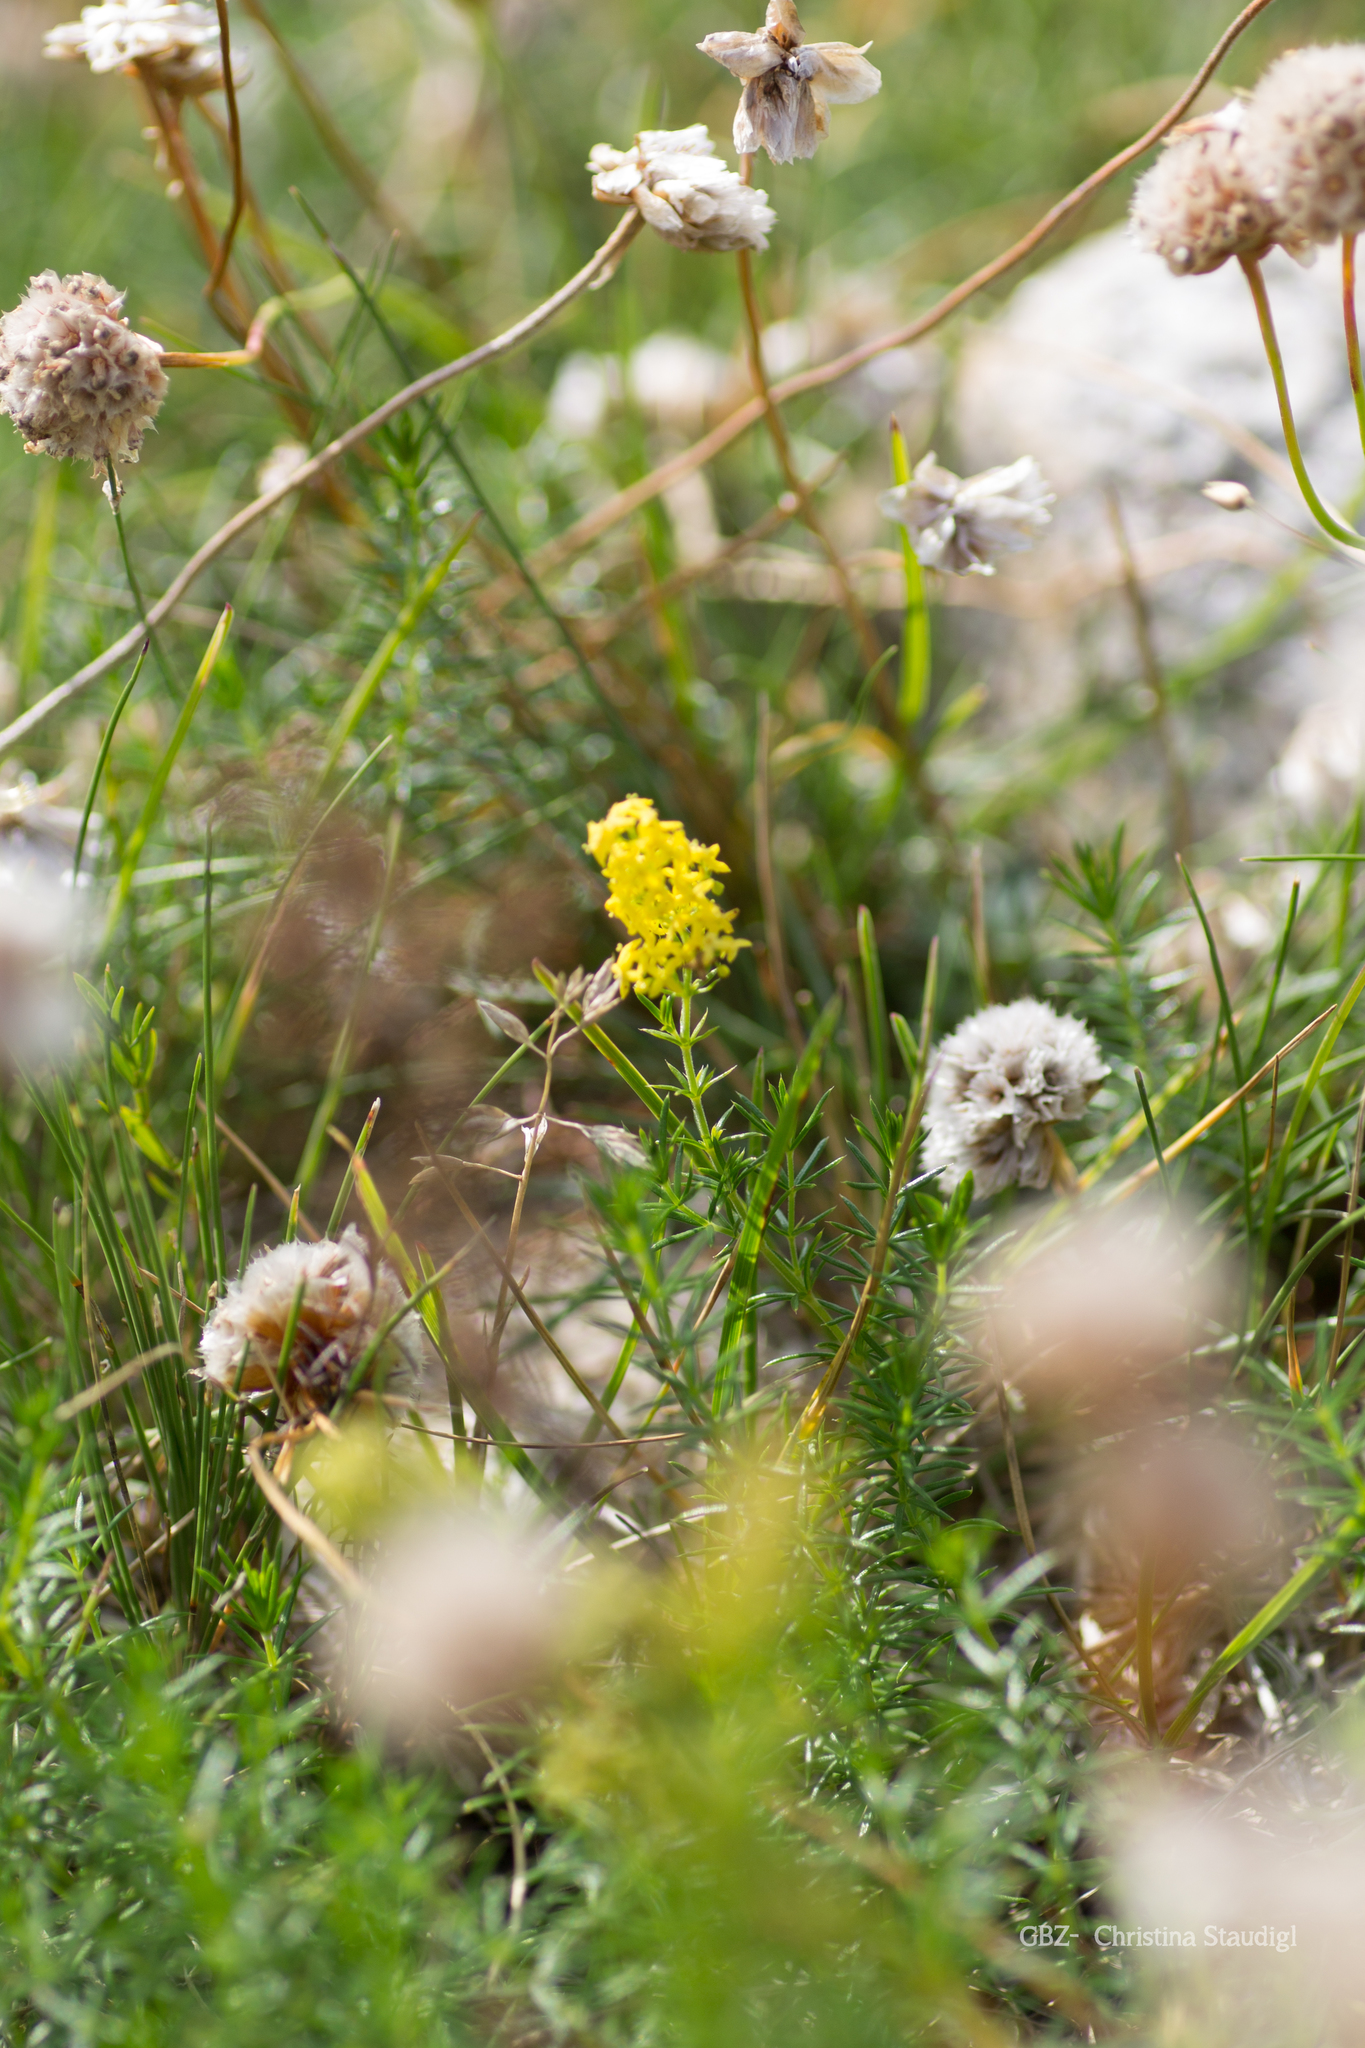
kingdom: Plantae
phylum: Tracheophyta
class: Magnoliopsida
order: Caryophyllales
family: Plumbaginaceae
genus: Armeria
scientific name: Armeria maritima
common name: Thrift
